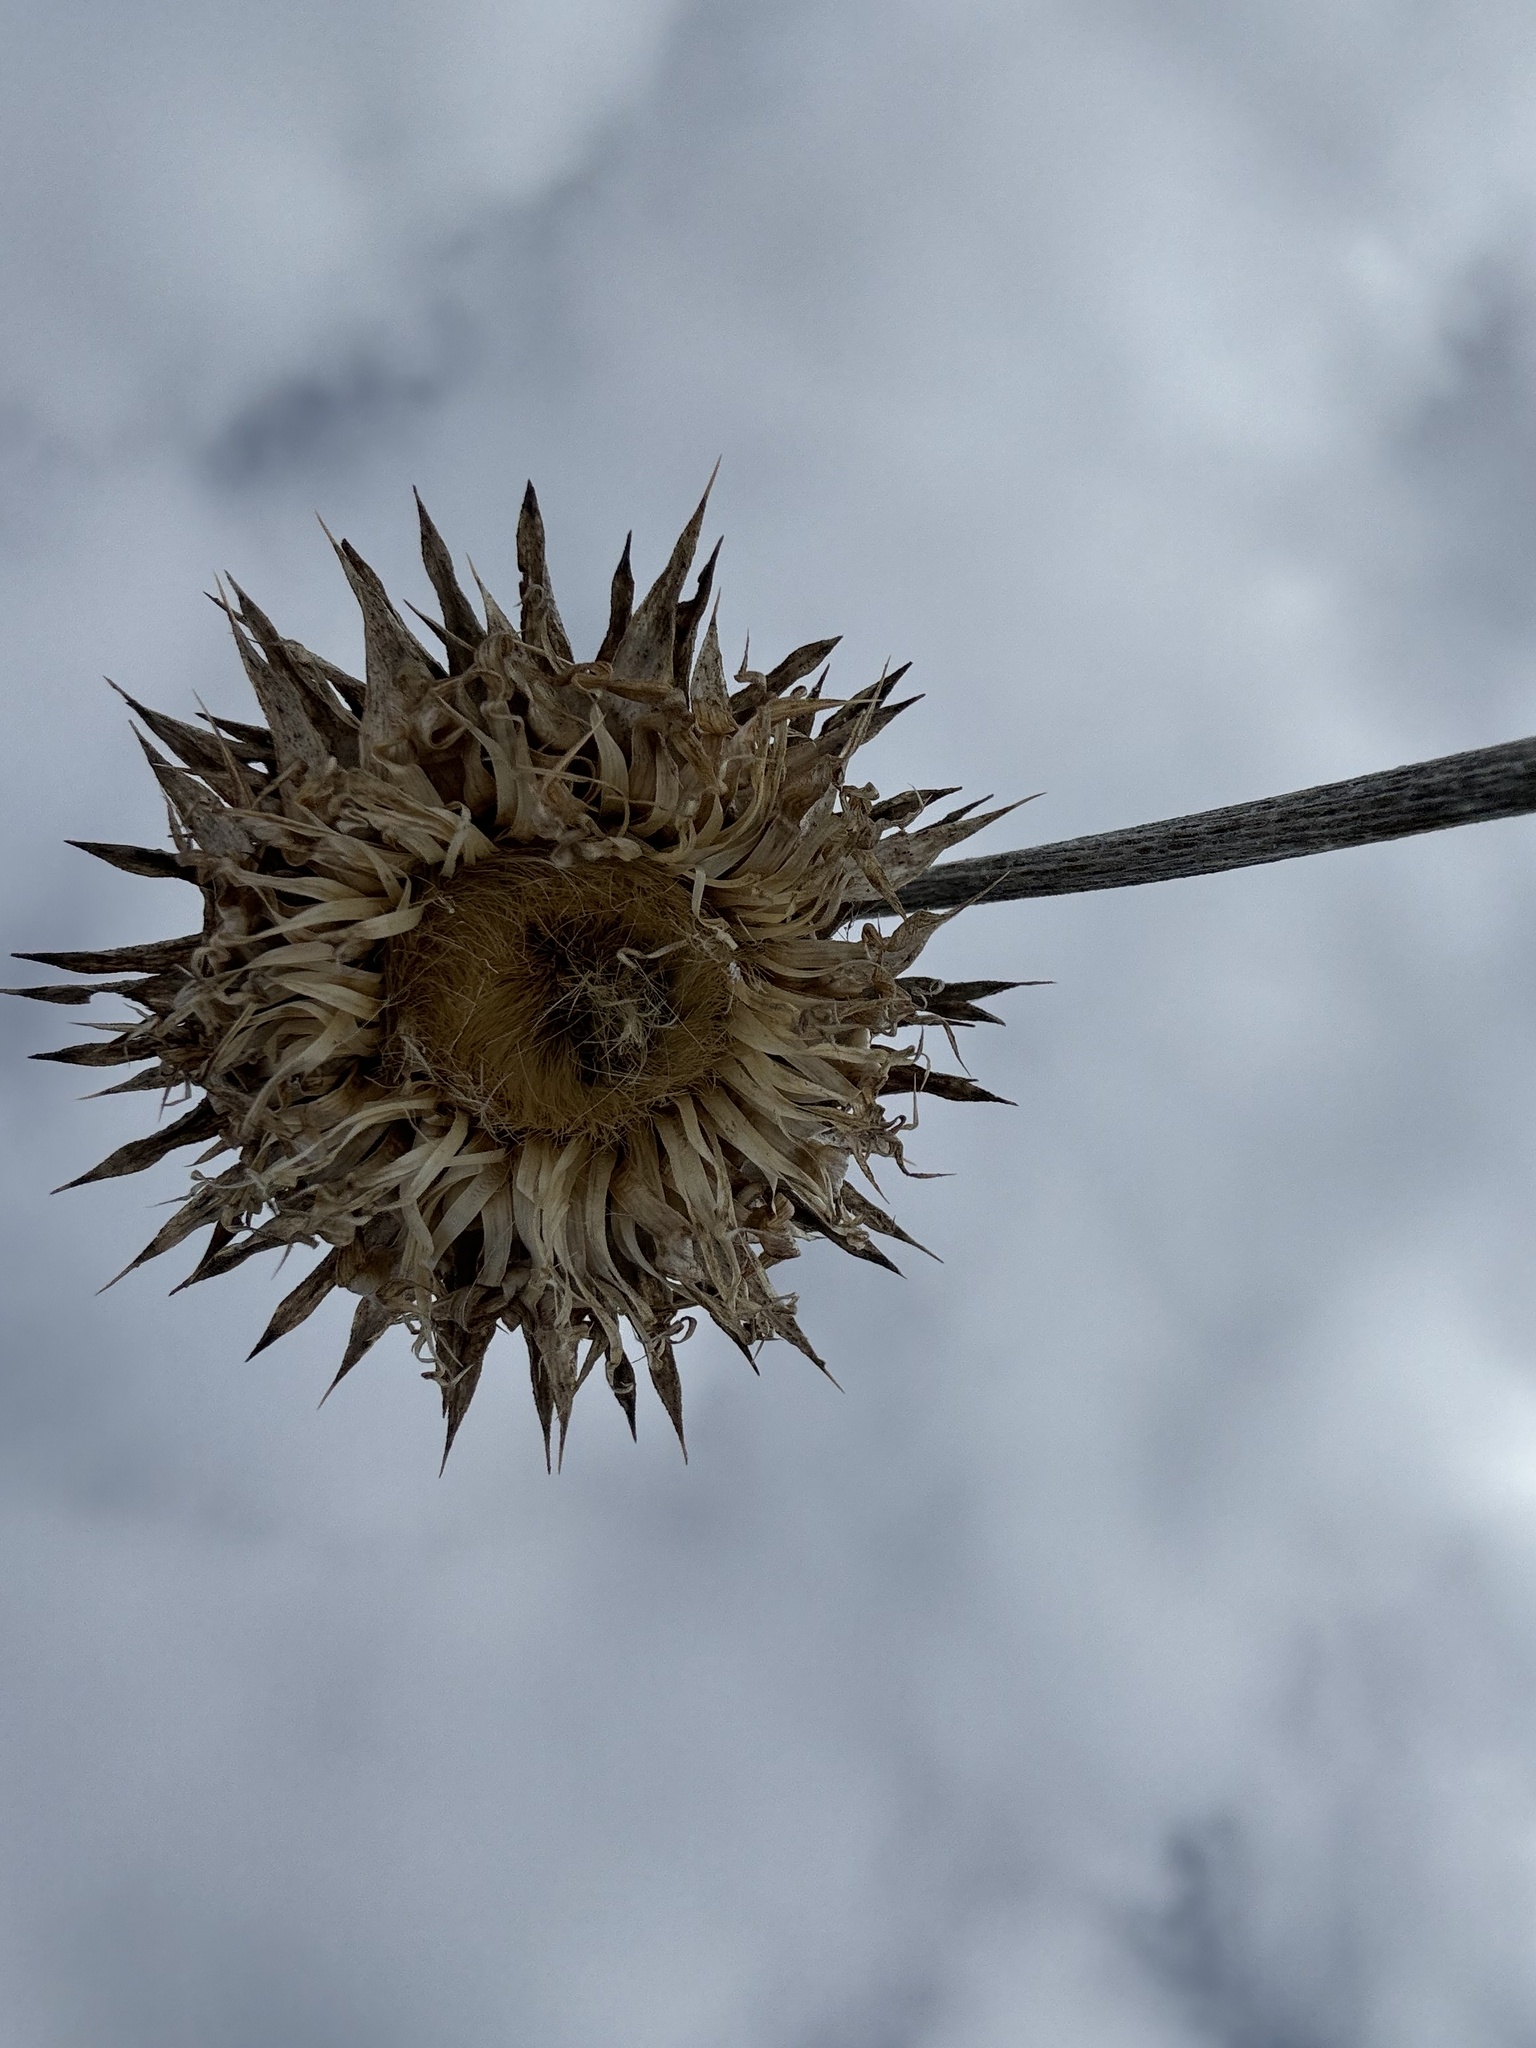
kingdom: Plantae
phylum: Tracheophyta
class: Magnoliopsida
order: Asterales
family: Asteraceae
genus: Carduus
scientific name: Carduus nutans
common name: Musk thistle
